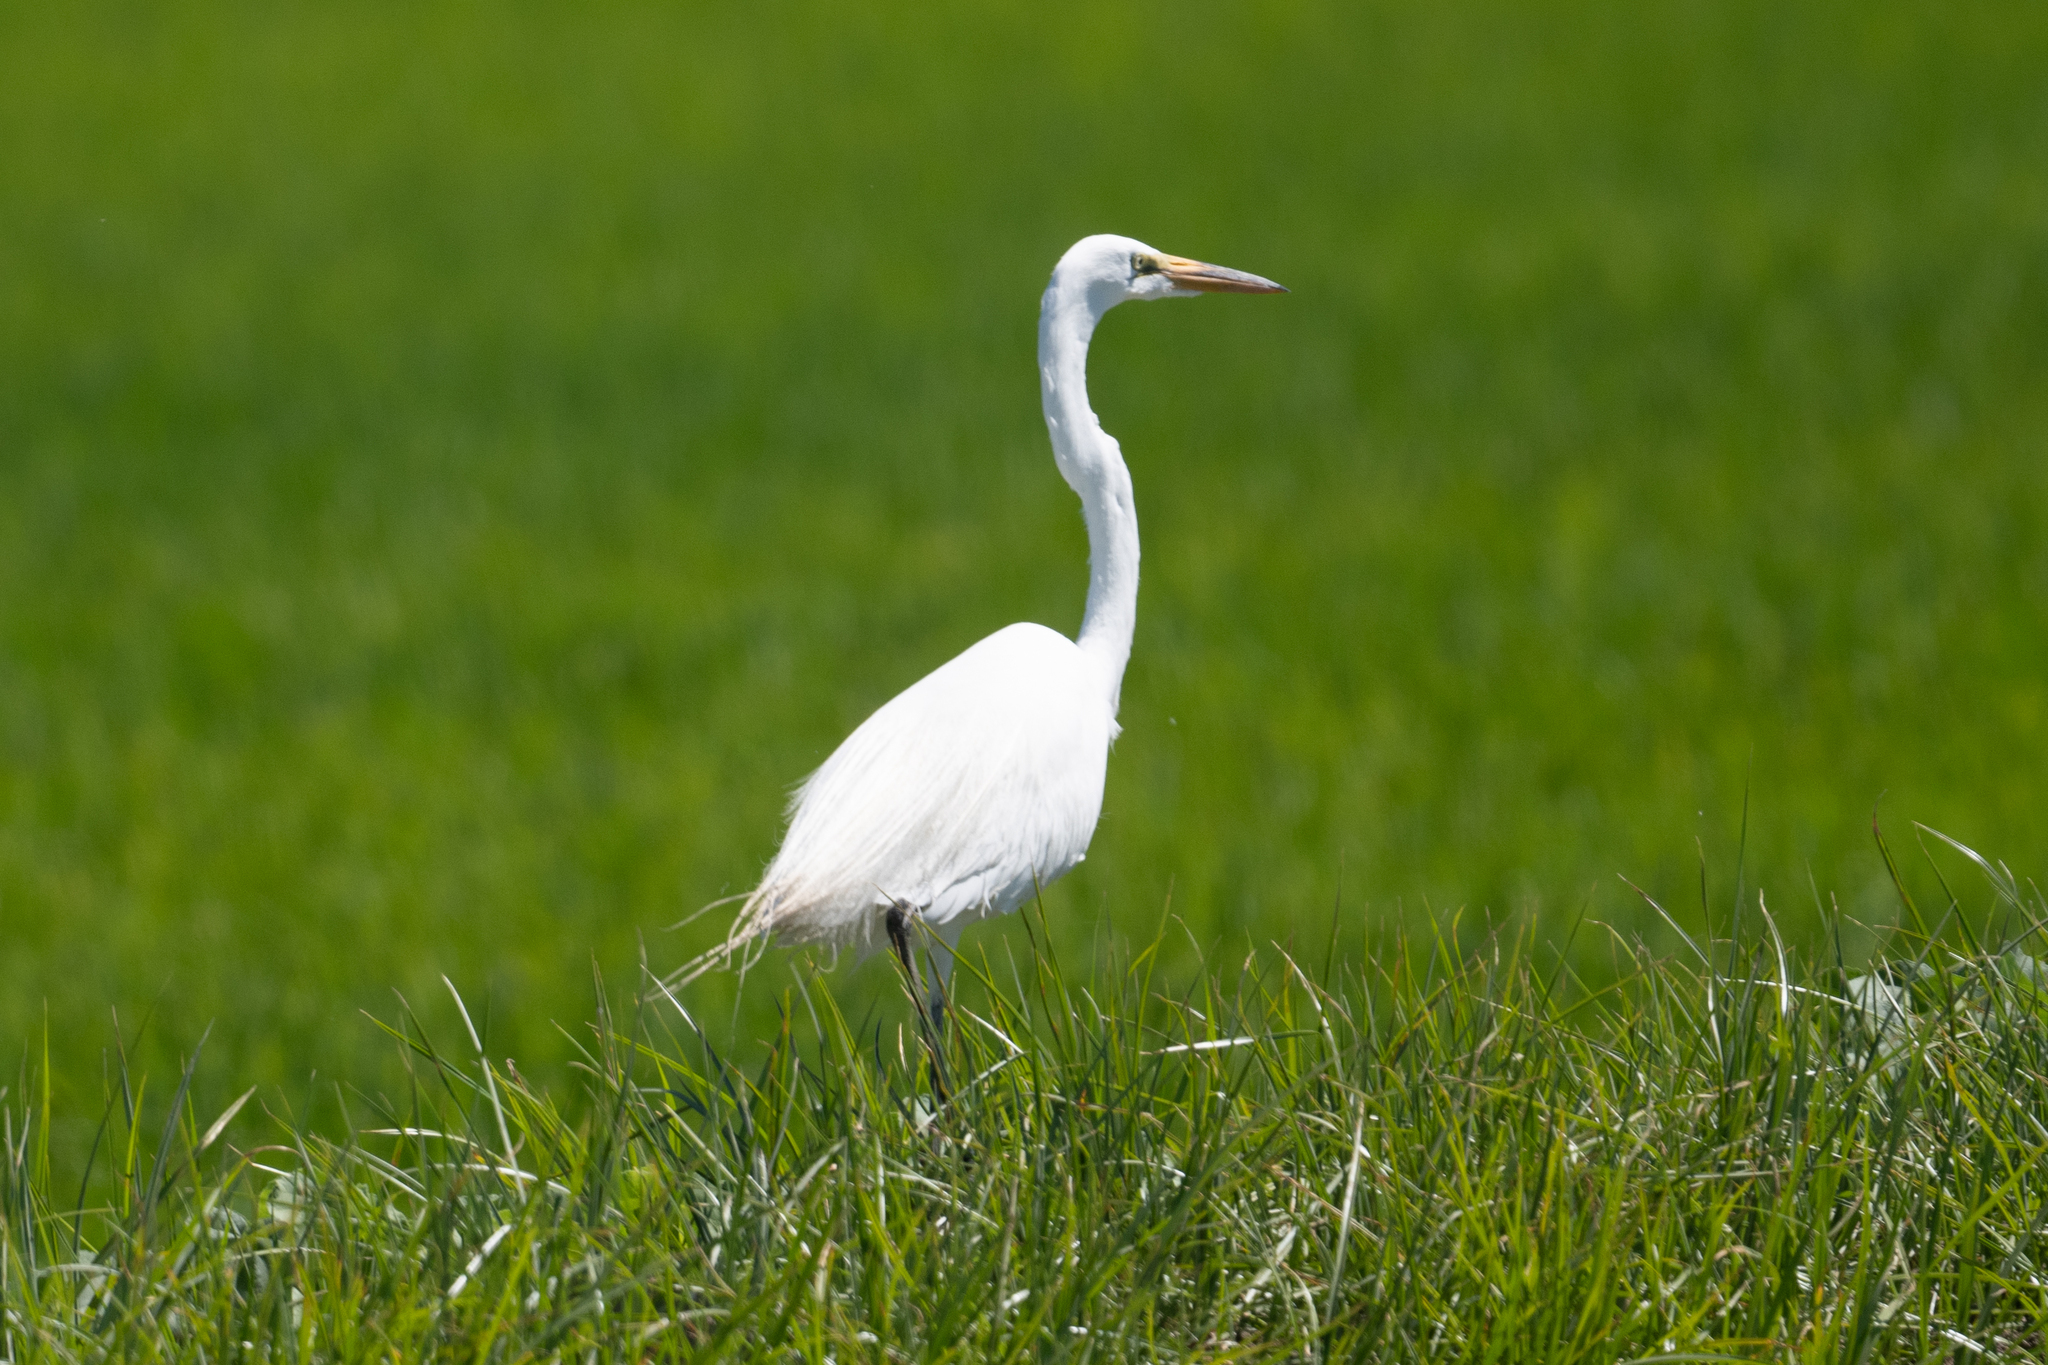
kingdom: Animalia
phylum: Chordata
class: Aves
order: Pelecaniformes
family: Ardeidae
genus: Ardea
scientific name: Ardea alba
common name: Great egret
